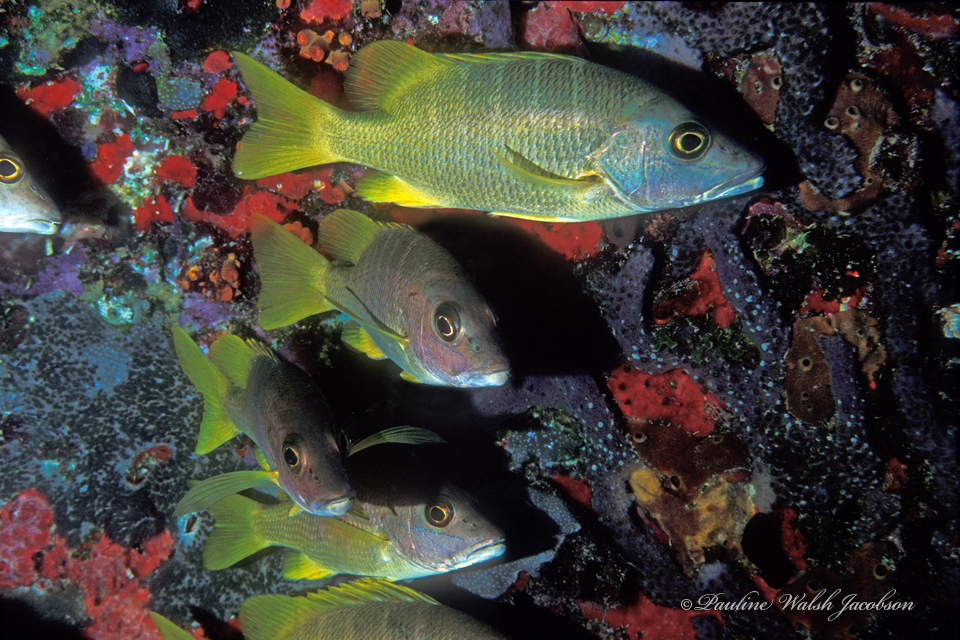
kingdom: Animalia
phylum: Chordata
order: Perciformes
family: Lutjanidae
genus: Lutjanus
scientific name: Lutjanus apodus
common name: Schoolmaster
